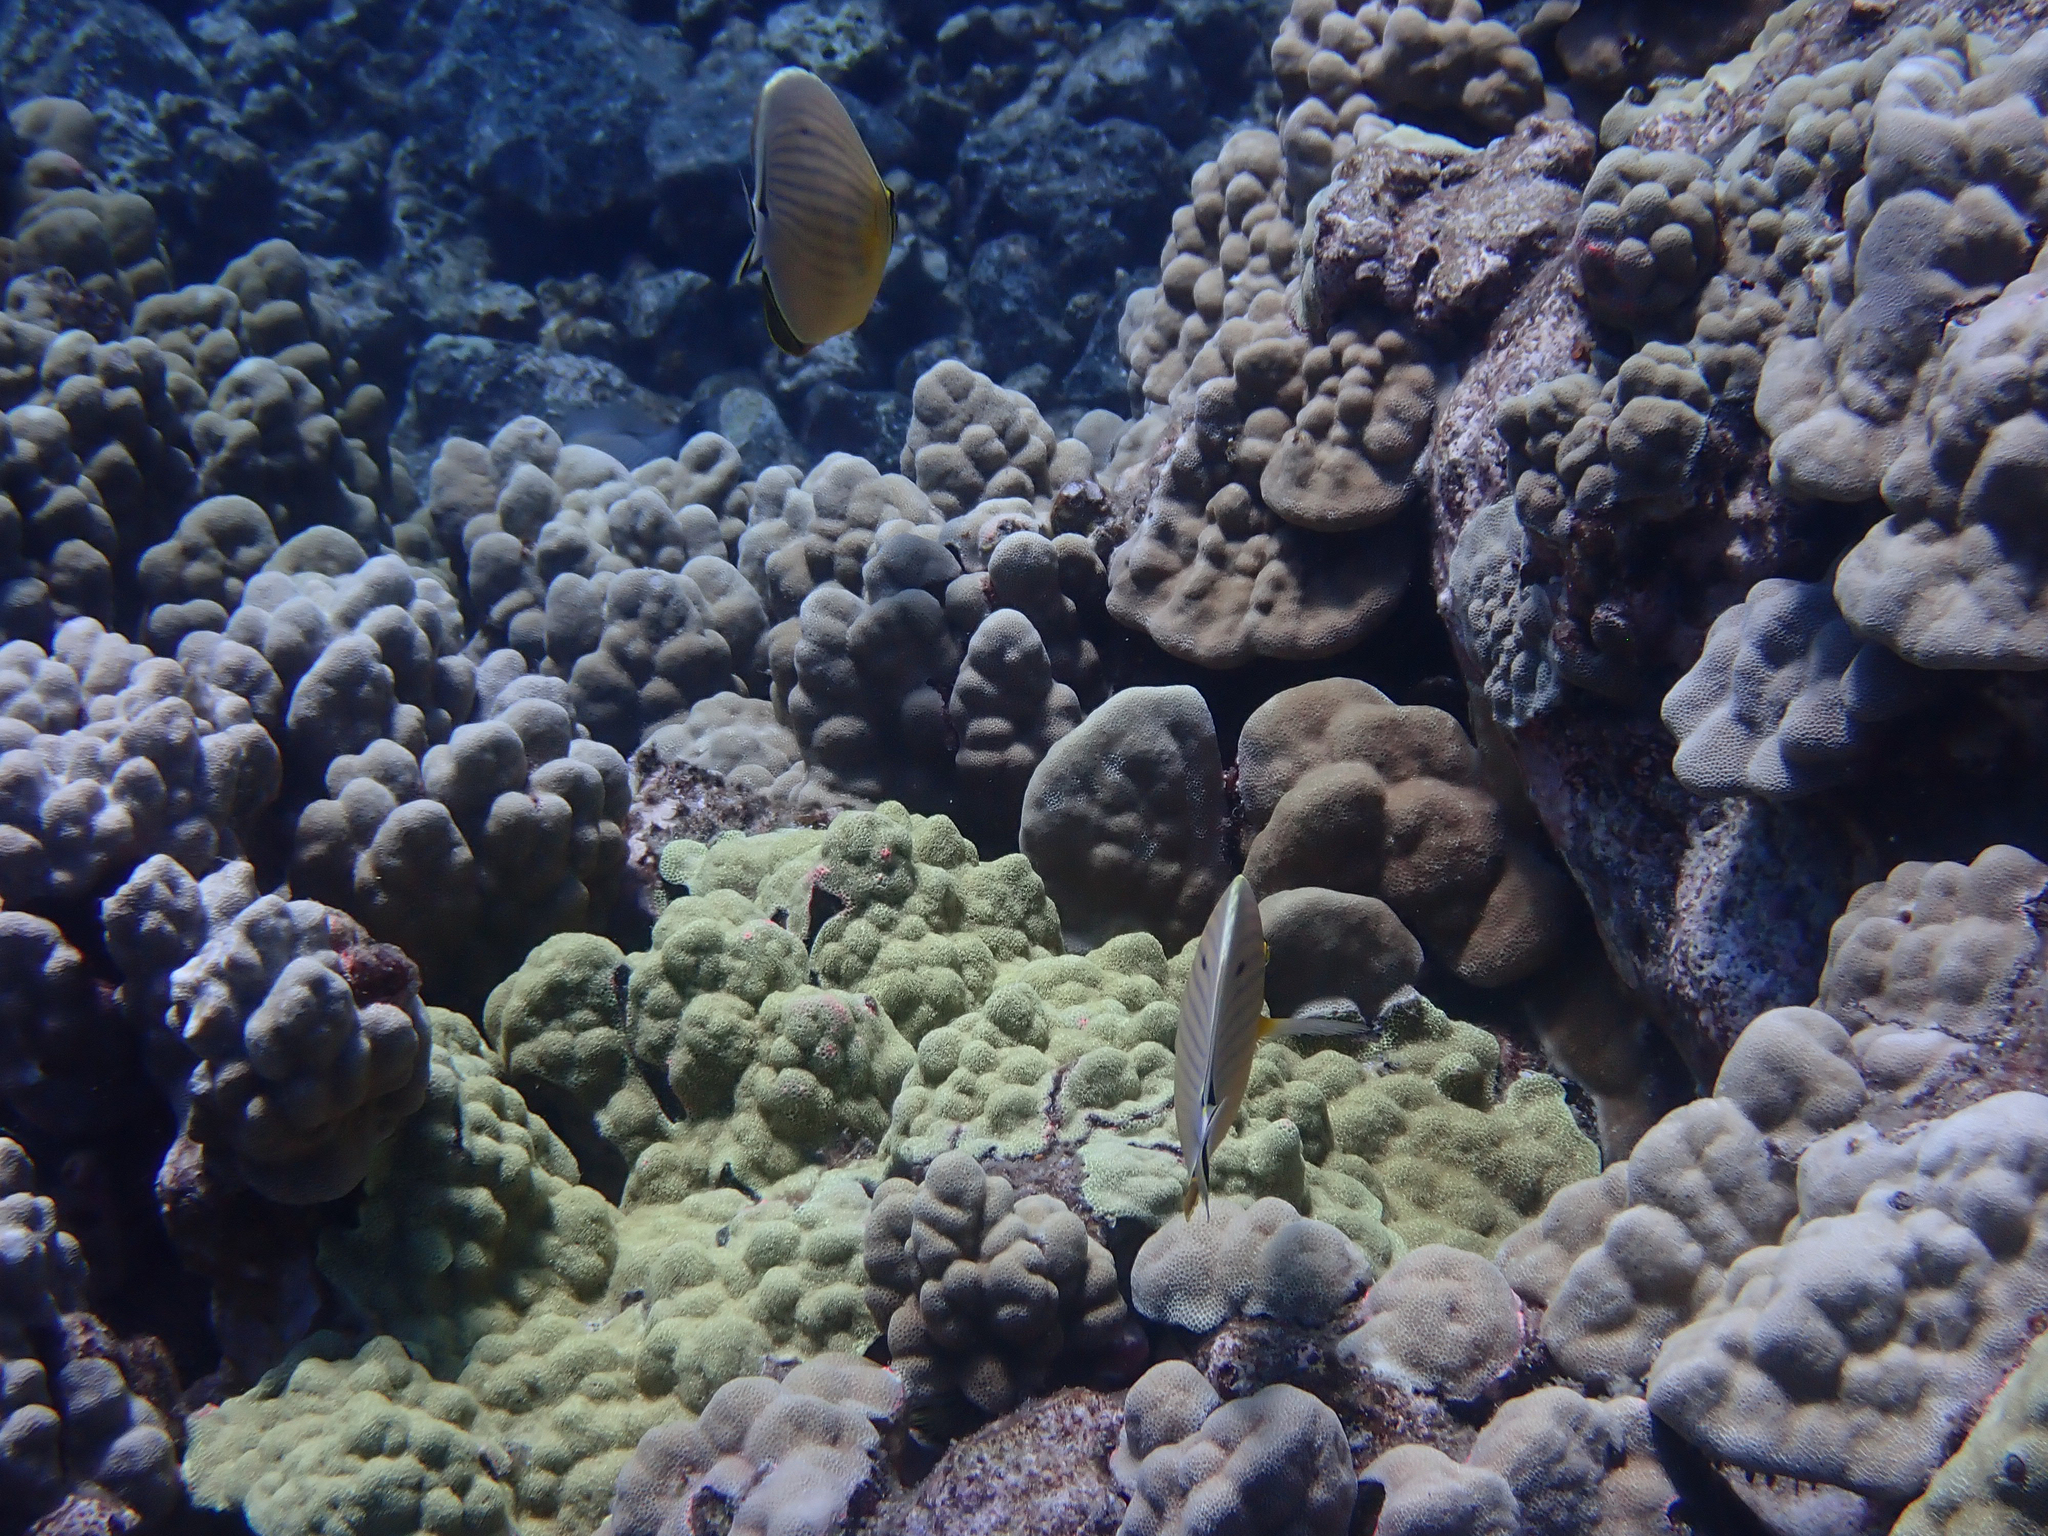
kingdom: Animalia
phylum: Chordata
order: Perciformes
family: Chaetodontidae
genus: Chaetodon
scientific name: Chaetodon lunulatus
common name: Redfin butterflyfish
